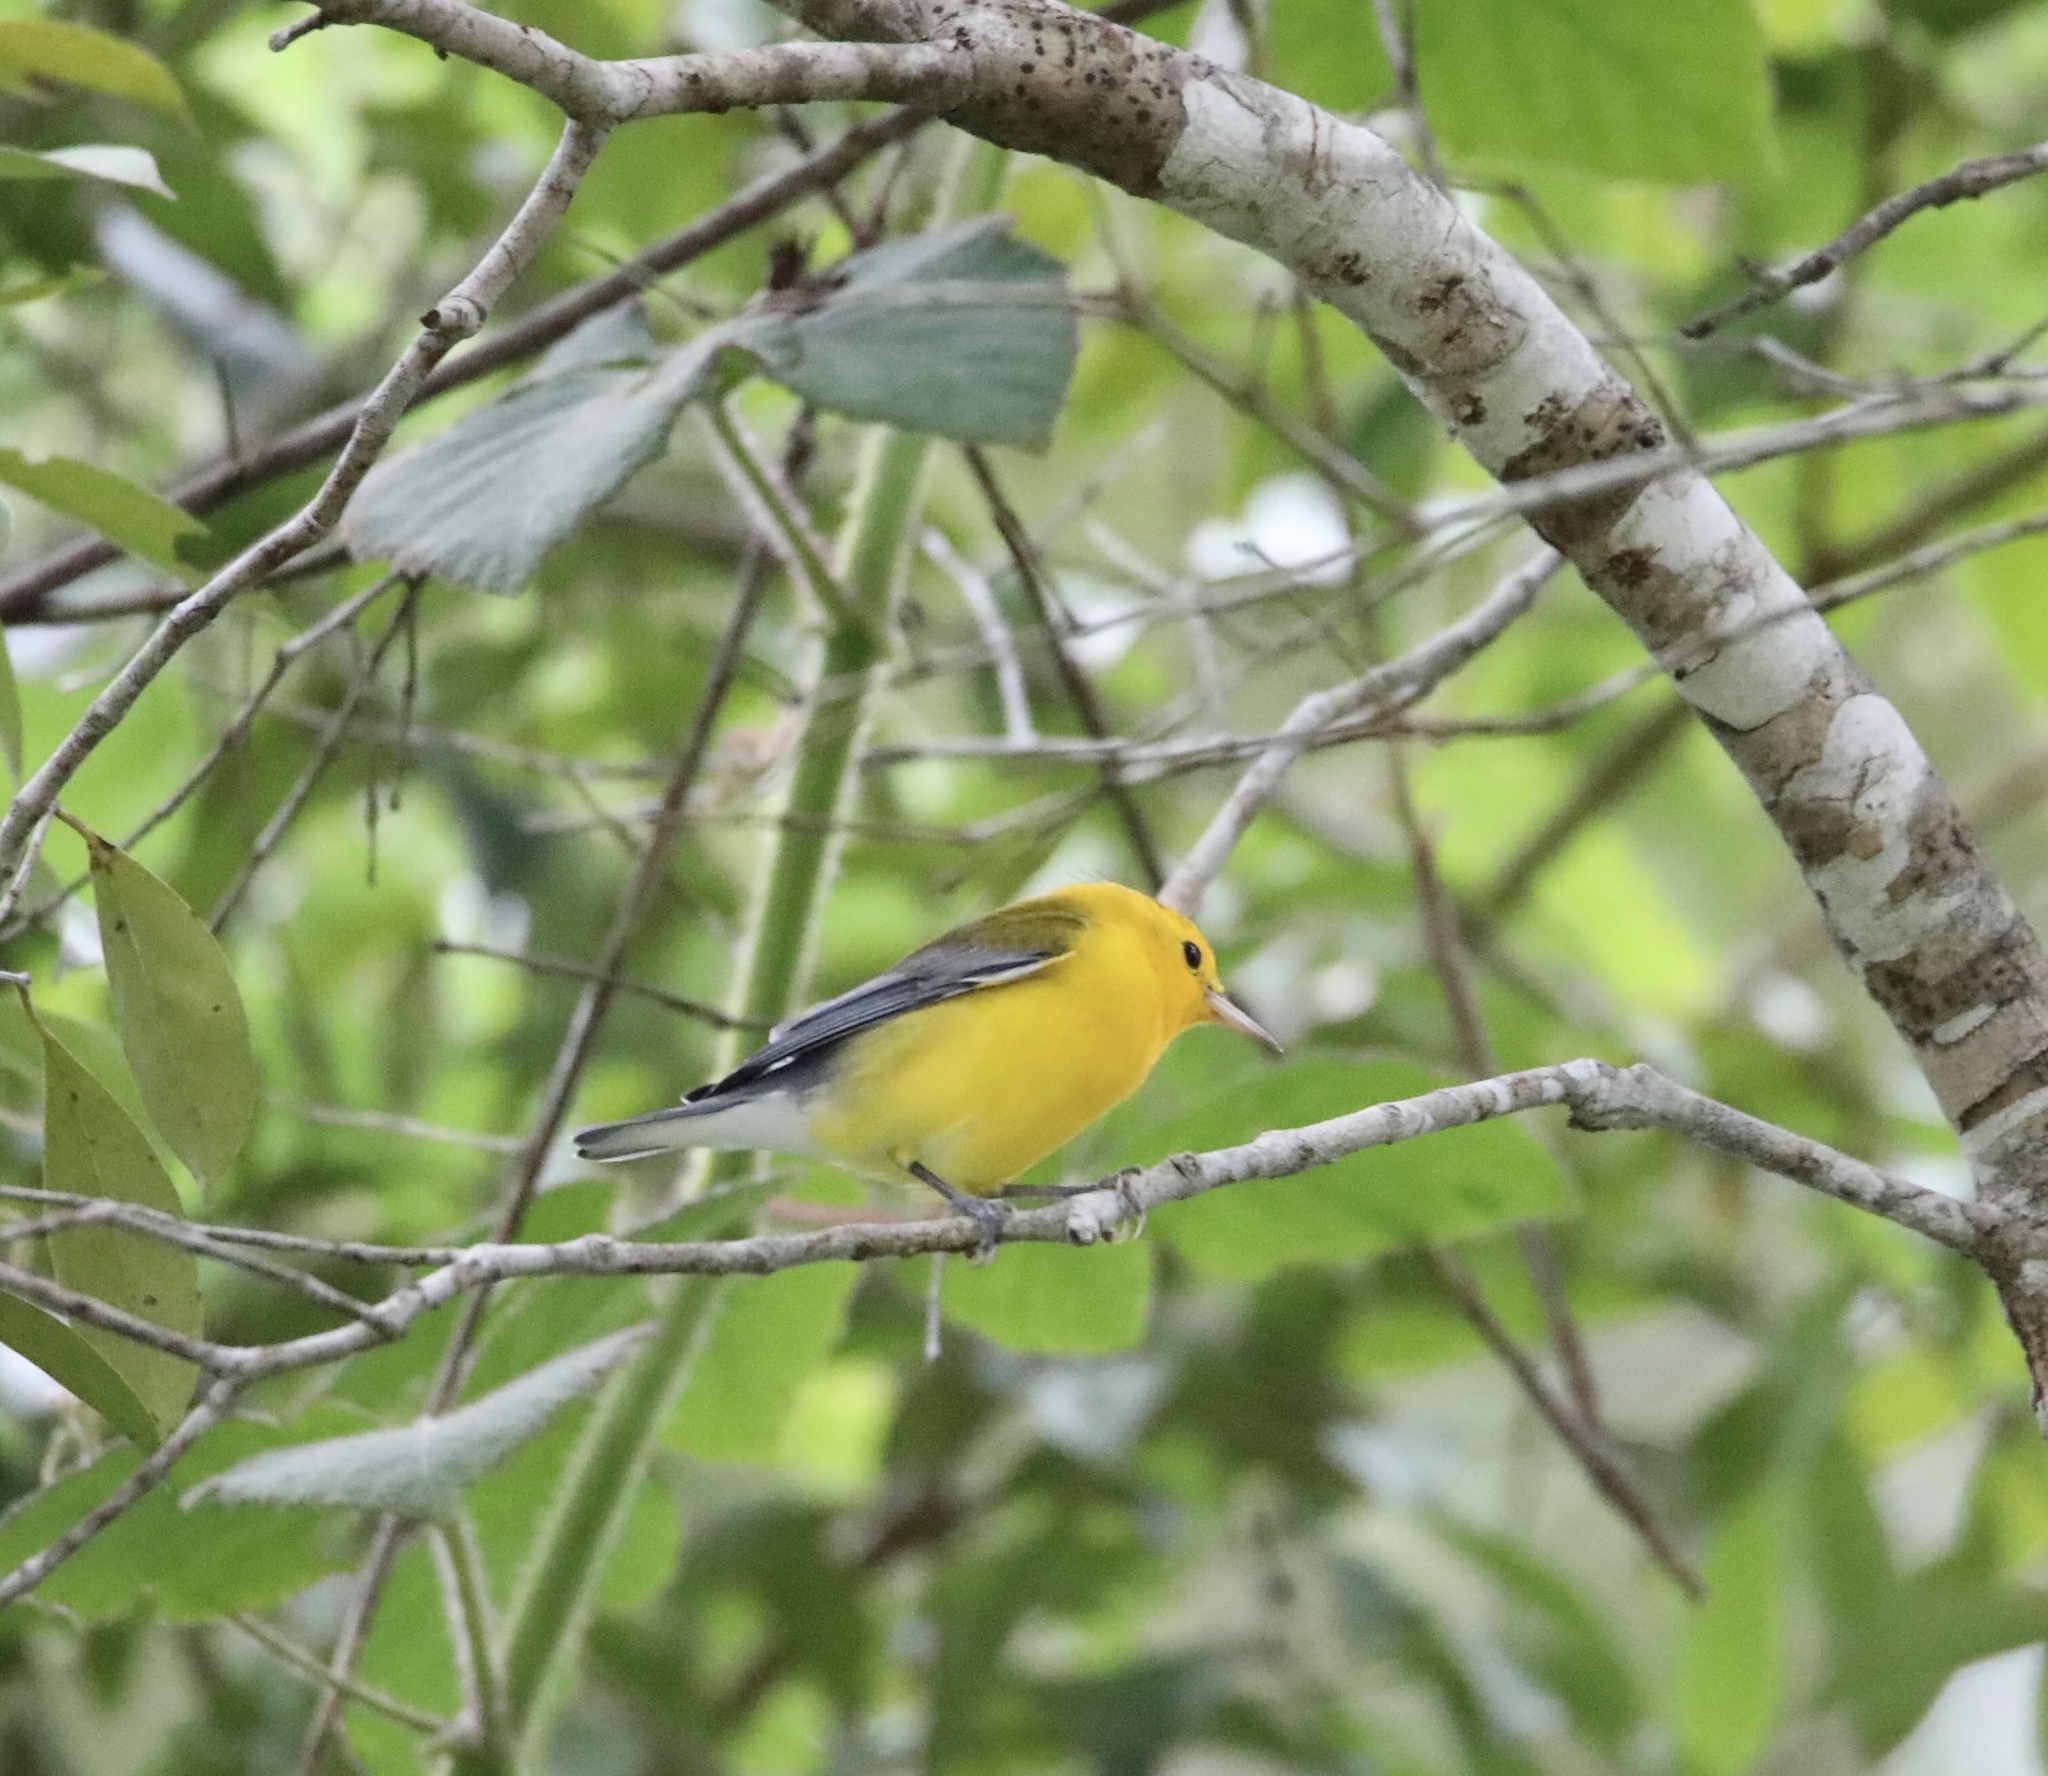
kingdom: Animalia
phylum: Chordata
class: Aves
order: Passeriformes
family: Parulidae
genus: Protonotaria
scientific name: Protonotaria citrea
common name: Prothonotary warbler
